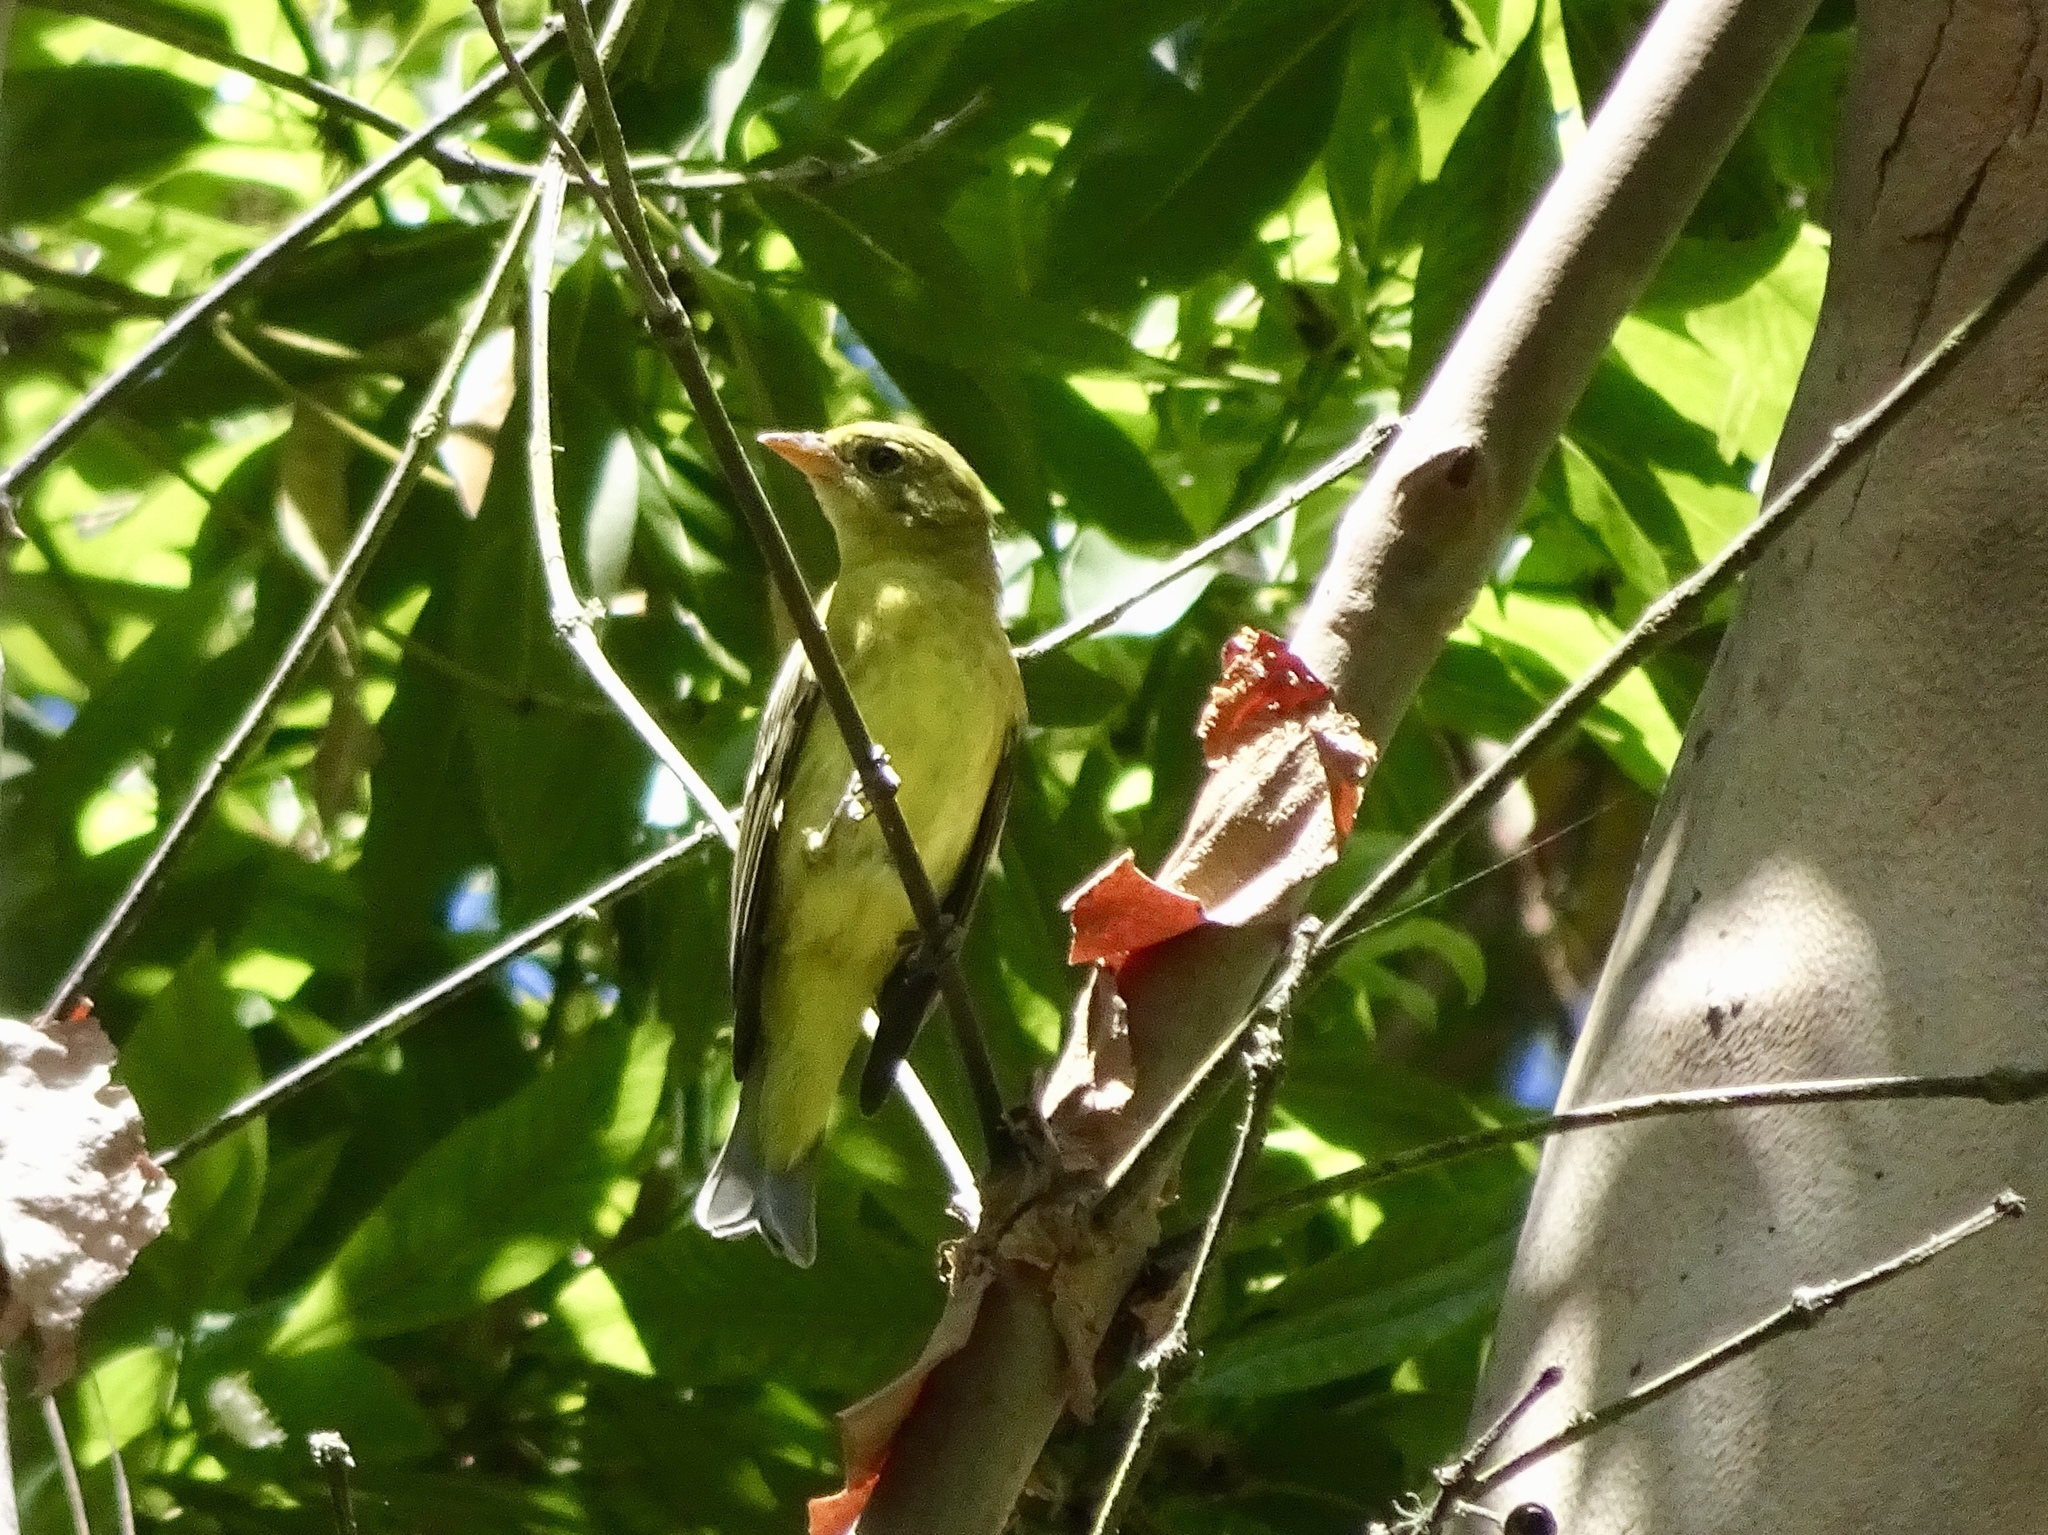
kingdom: Animalia
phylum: Chordata
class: Aves
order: Passeriformes
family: Cardinalidae
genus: Piranga
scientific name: Piranga ludoviciana
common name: Western tanager
